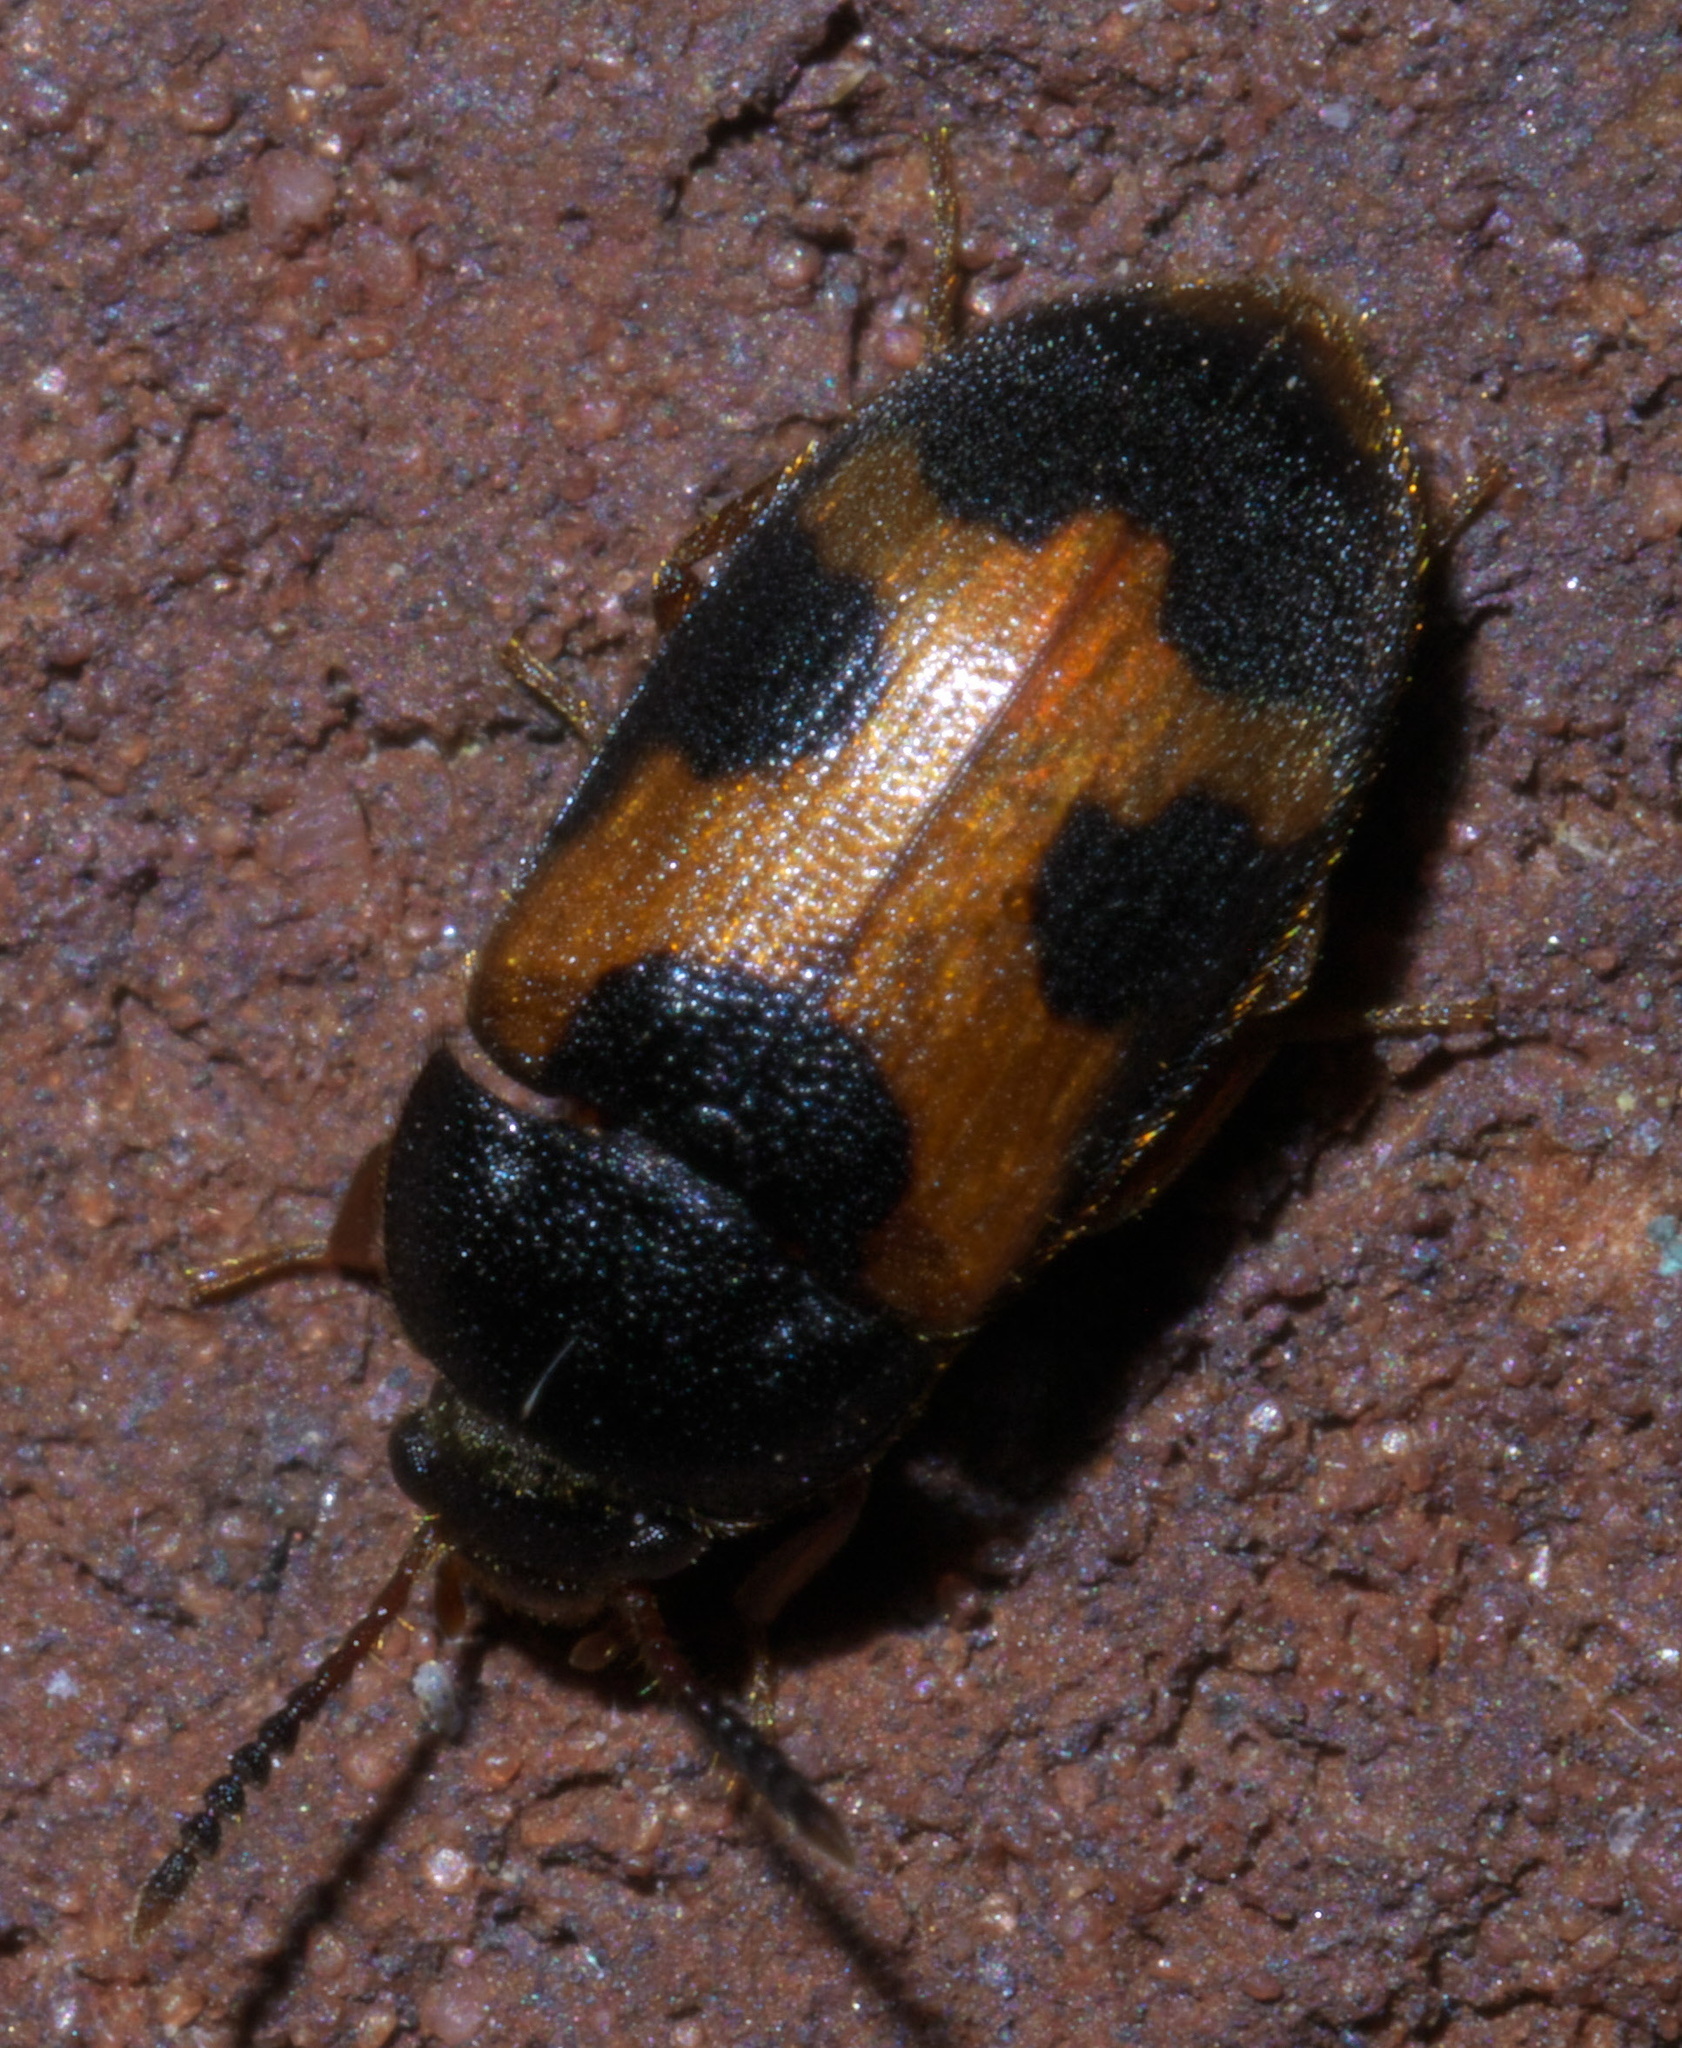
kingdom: Animalia
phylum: Arthropoda
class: Insecta
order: Coleoptera
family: Mycetophagidae
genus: Mycetophagus
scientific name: Mycetophagus punctatus
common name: Hairy fungus beetle
